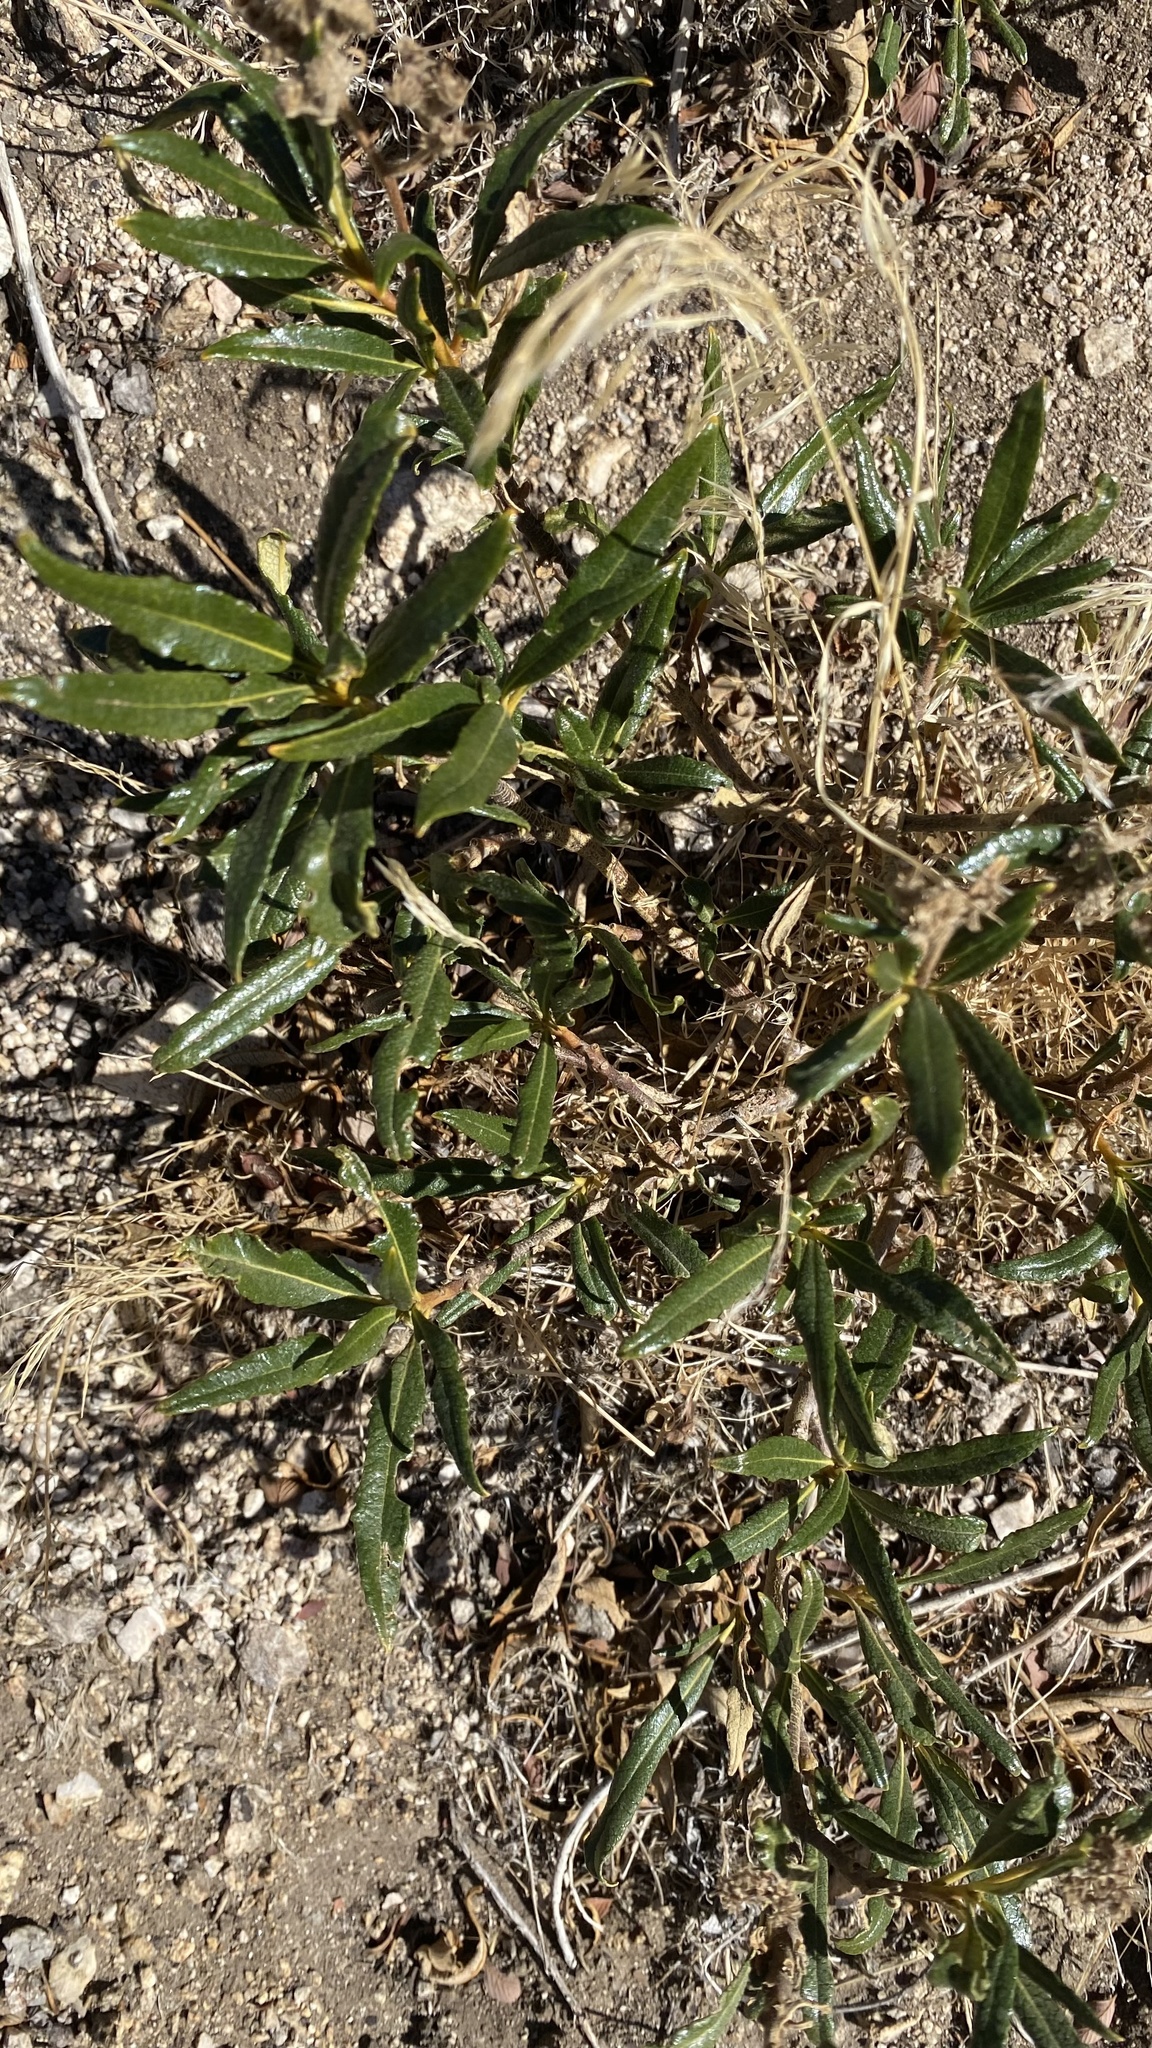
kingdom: Plantae
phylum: Tracheophyta
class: Magnoliopsida
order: Boraginales
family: Namaceae
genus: Eriodictyon
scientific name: Eriodictyon trichocalyx
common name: Hairy yerba-santa
